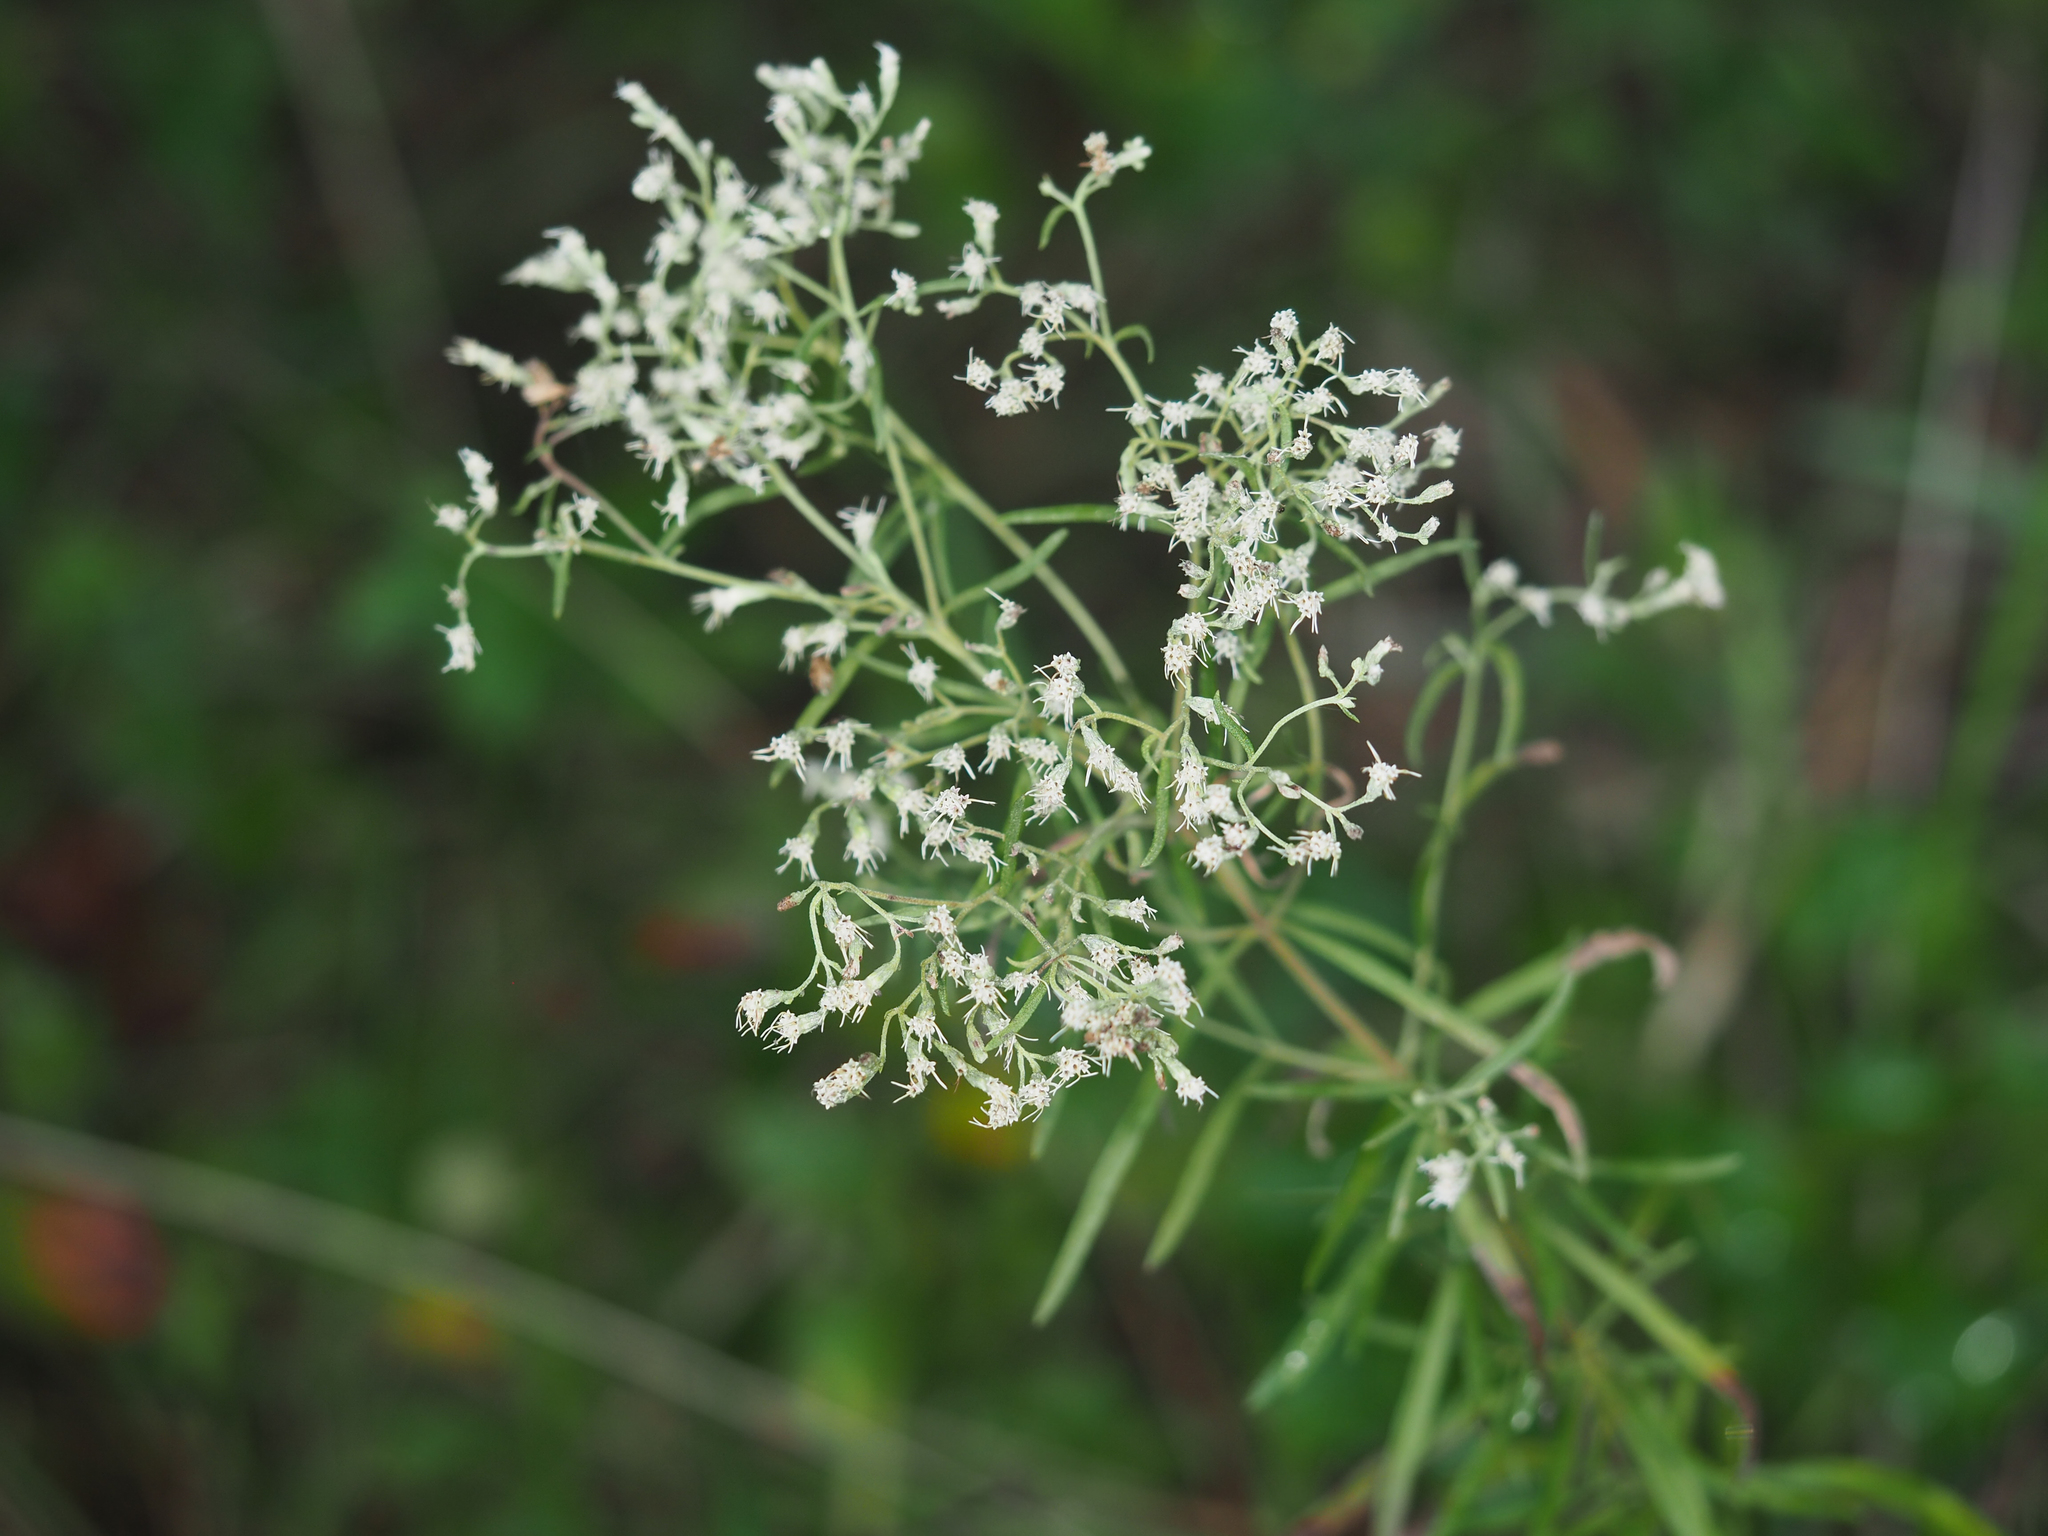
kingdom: Plantae
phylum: Tracheophyta
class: Magnoliopsida
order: Asterales
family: Asteraceae
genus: Eupatorium
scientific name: Eupatorium hyssopifolium
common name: Hyssop-leaf thoroughwort
